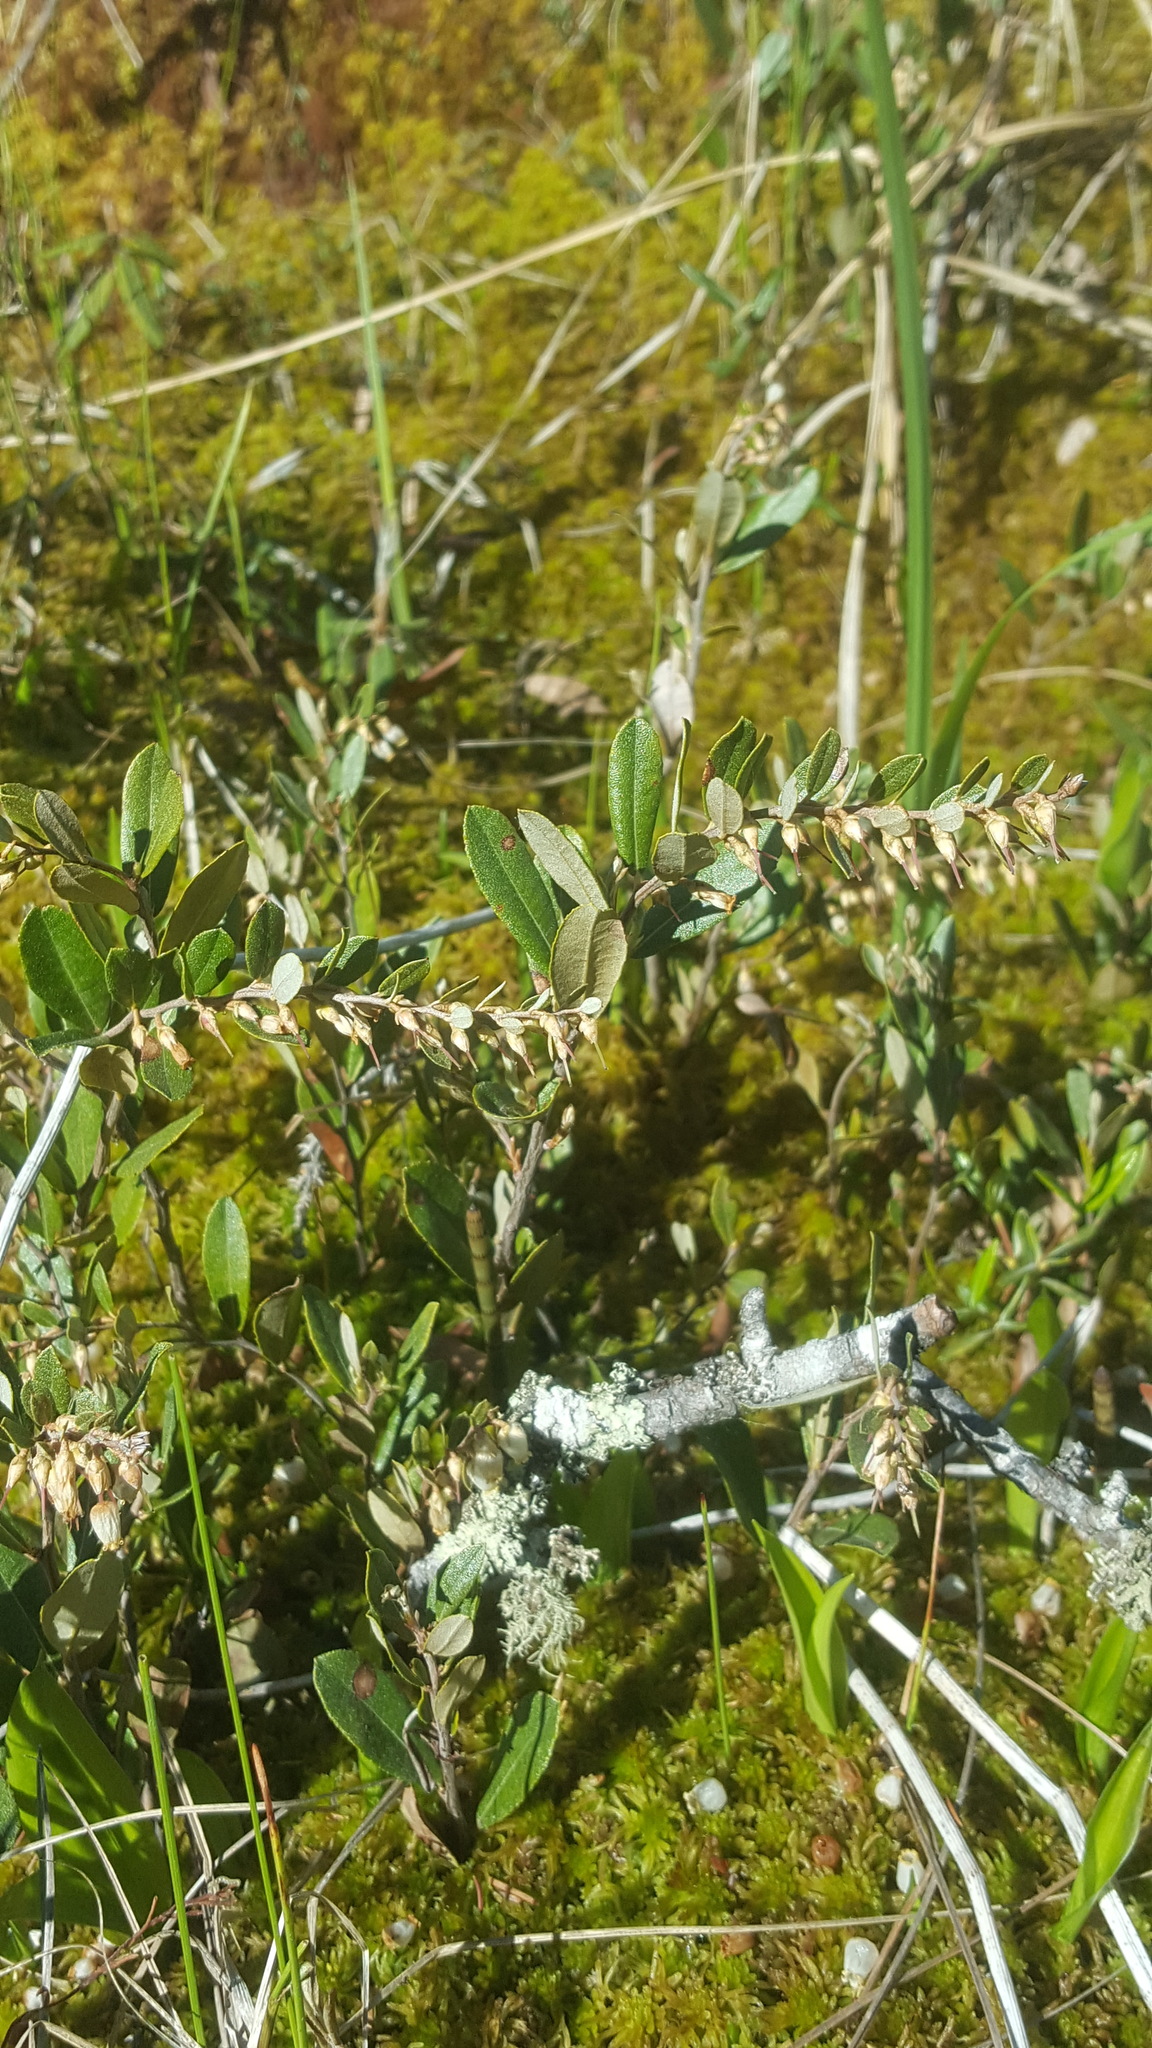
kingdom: Plantae
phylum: Tracheophyta
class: Magnoliopsida
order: Ericales
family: Ericaceae
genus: Chamaedaphne
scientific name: Chamaedaphne calyculata
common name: Leatherleaf
